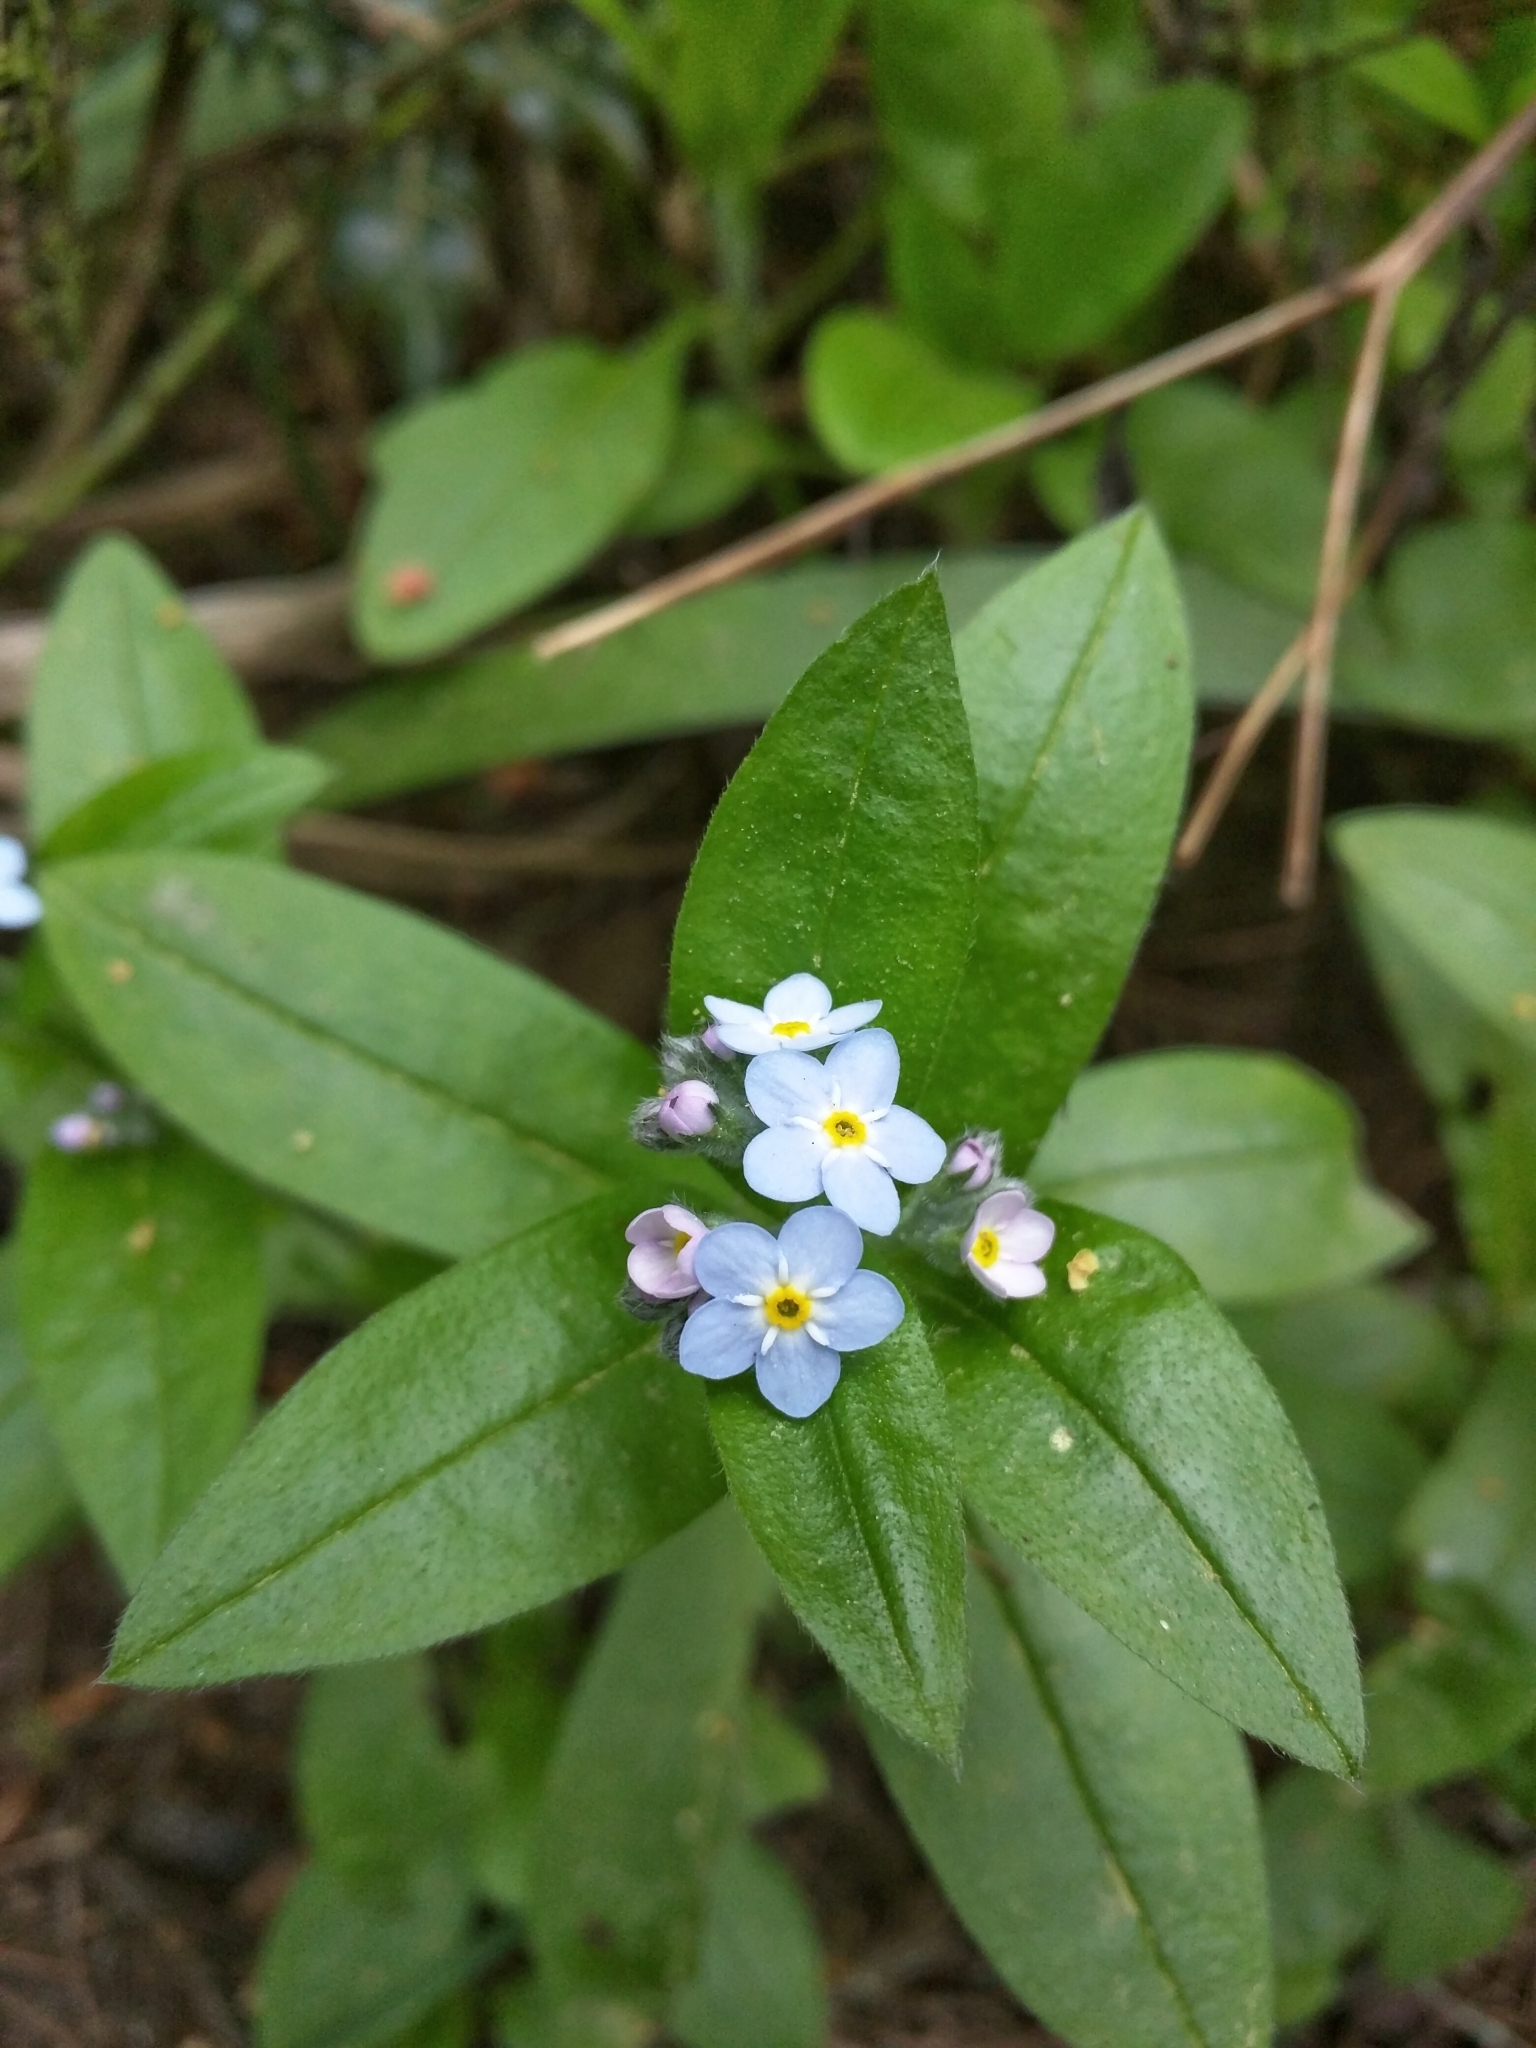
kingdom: Plantae
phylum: Tracheophyta
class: Magnoliopsida
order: Boraginales
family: Boraginaceae
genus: Myosotis
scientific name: Myosotis sylvatica
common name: Wood forget-me-not
